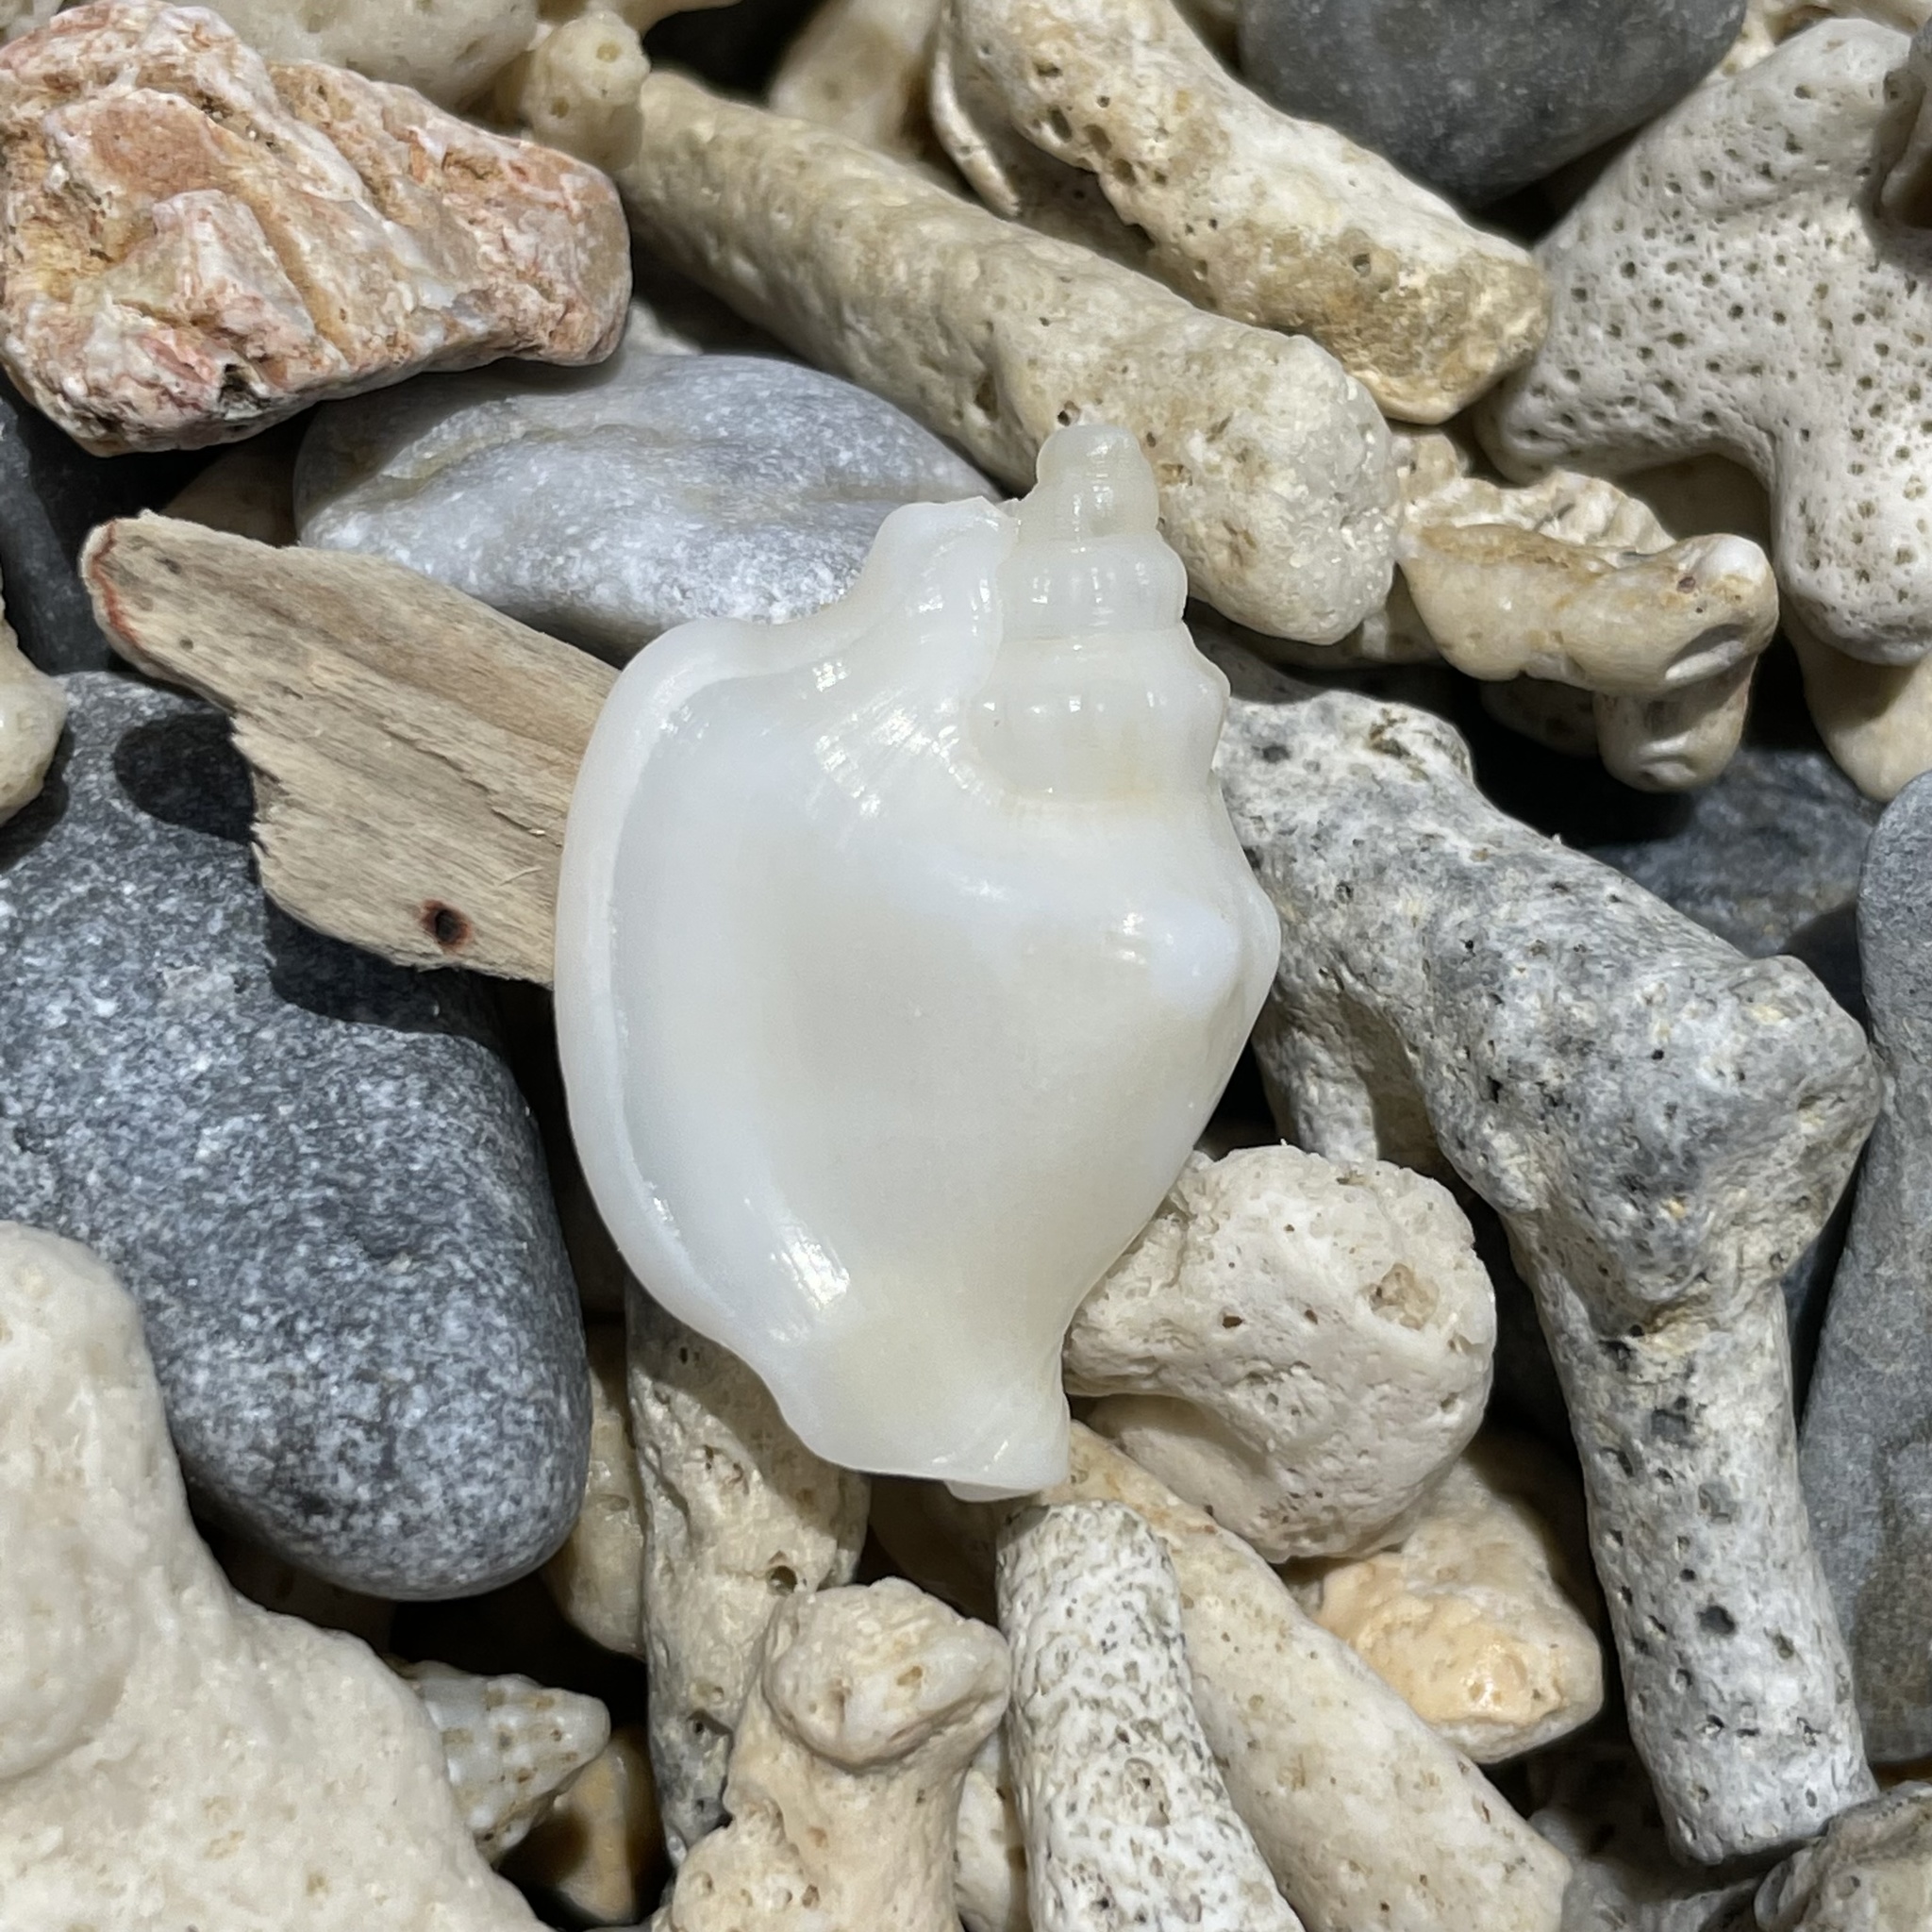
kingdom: Animalia
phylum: Mollusca
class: Gastropoda
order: Littorinimorpha
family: Strombidae
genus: Ministrombus
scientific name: Ministrombus minimus
